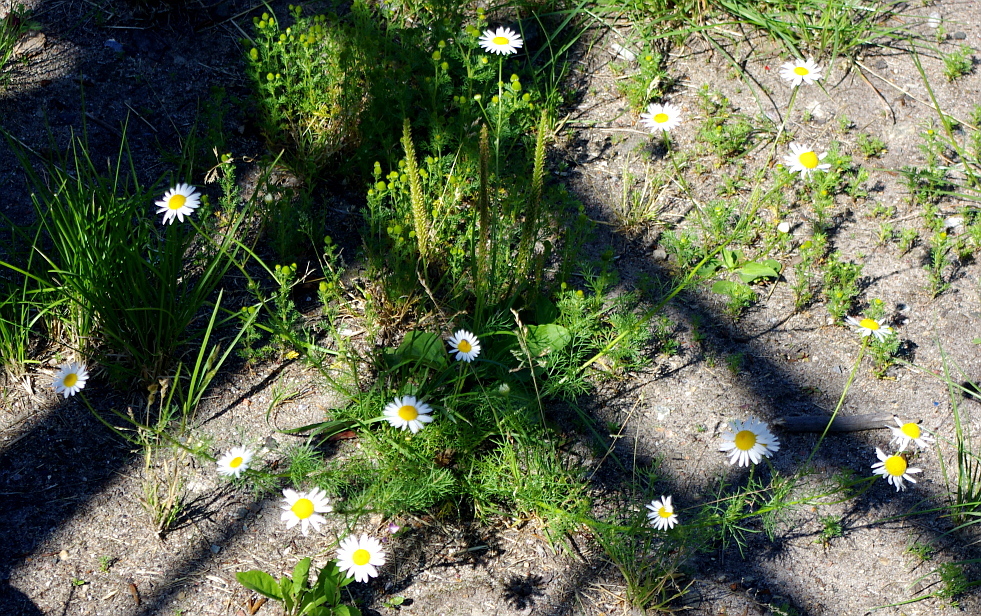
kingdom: Plantae
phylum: Tracheophyta
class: Magnoliopsida
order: Asterales
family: Asteraceae
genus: Tripleurospermum
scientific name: Tripleurospermum inodorum
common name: Scentless mayweed
